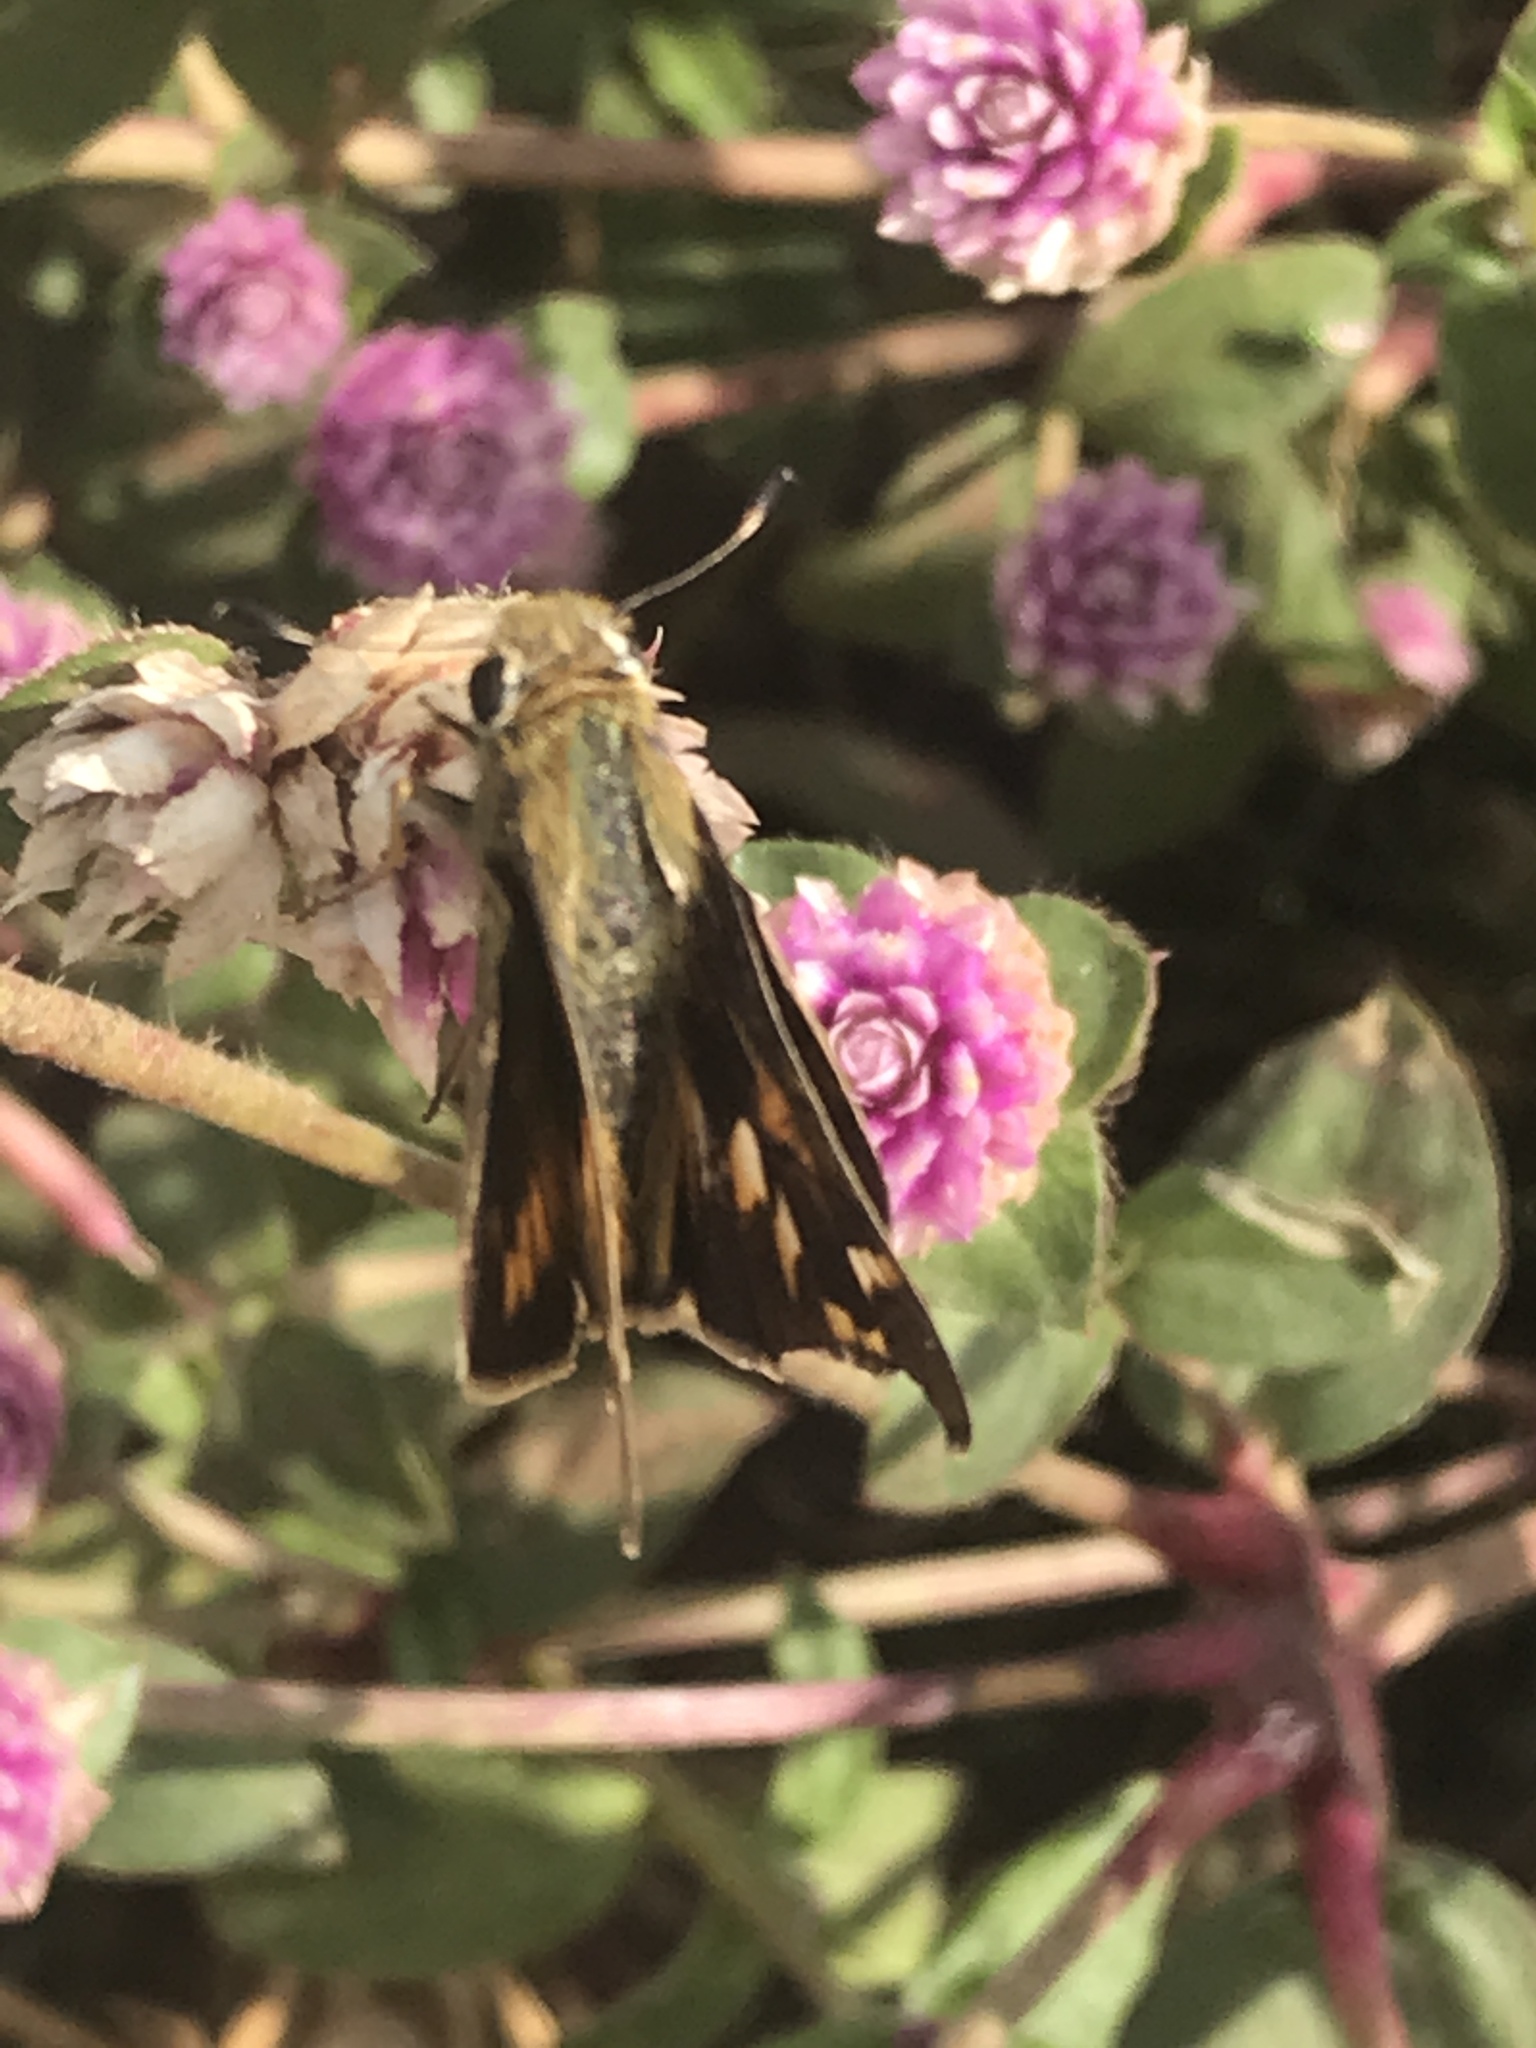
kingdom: Animalia
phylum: Arthropoda
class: Insecta
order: Lepidoptera
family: Hesperiidae
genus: Atalopedes
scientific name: Atalopedes
